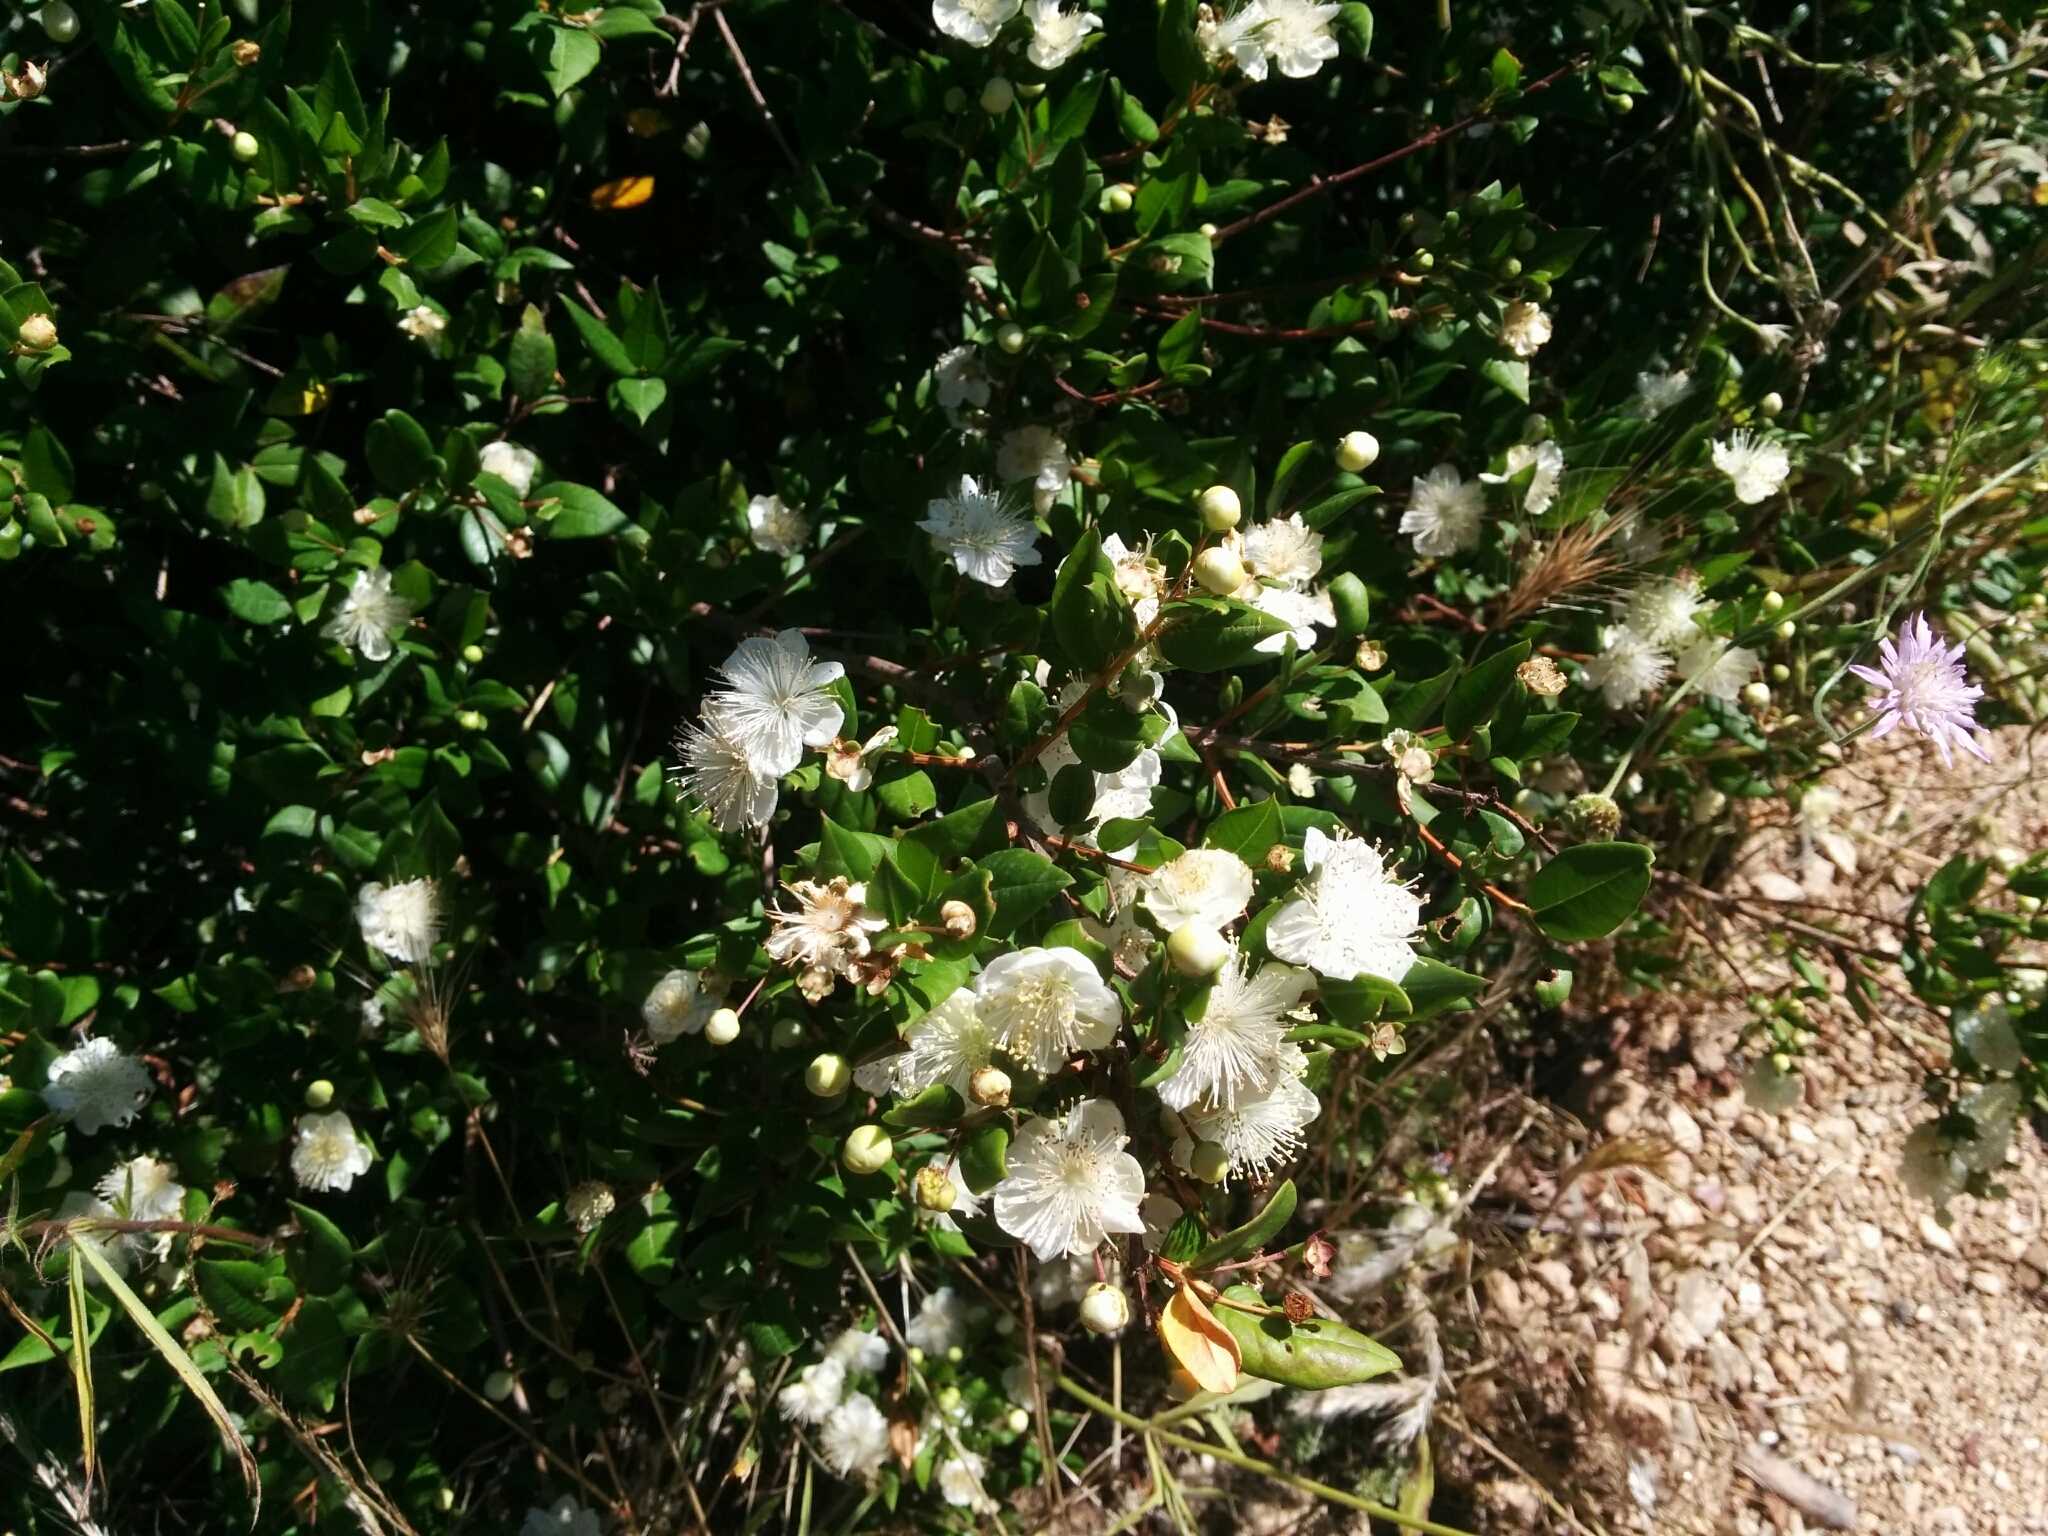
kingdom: Plantae
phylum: Tracheophyta
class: Magnoliopsida
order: Myrtales
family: Myrtaceae
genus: Myrtus
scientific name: Myrtus communis
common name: Myrtle
